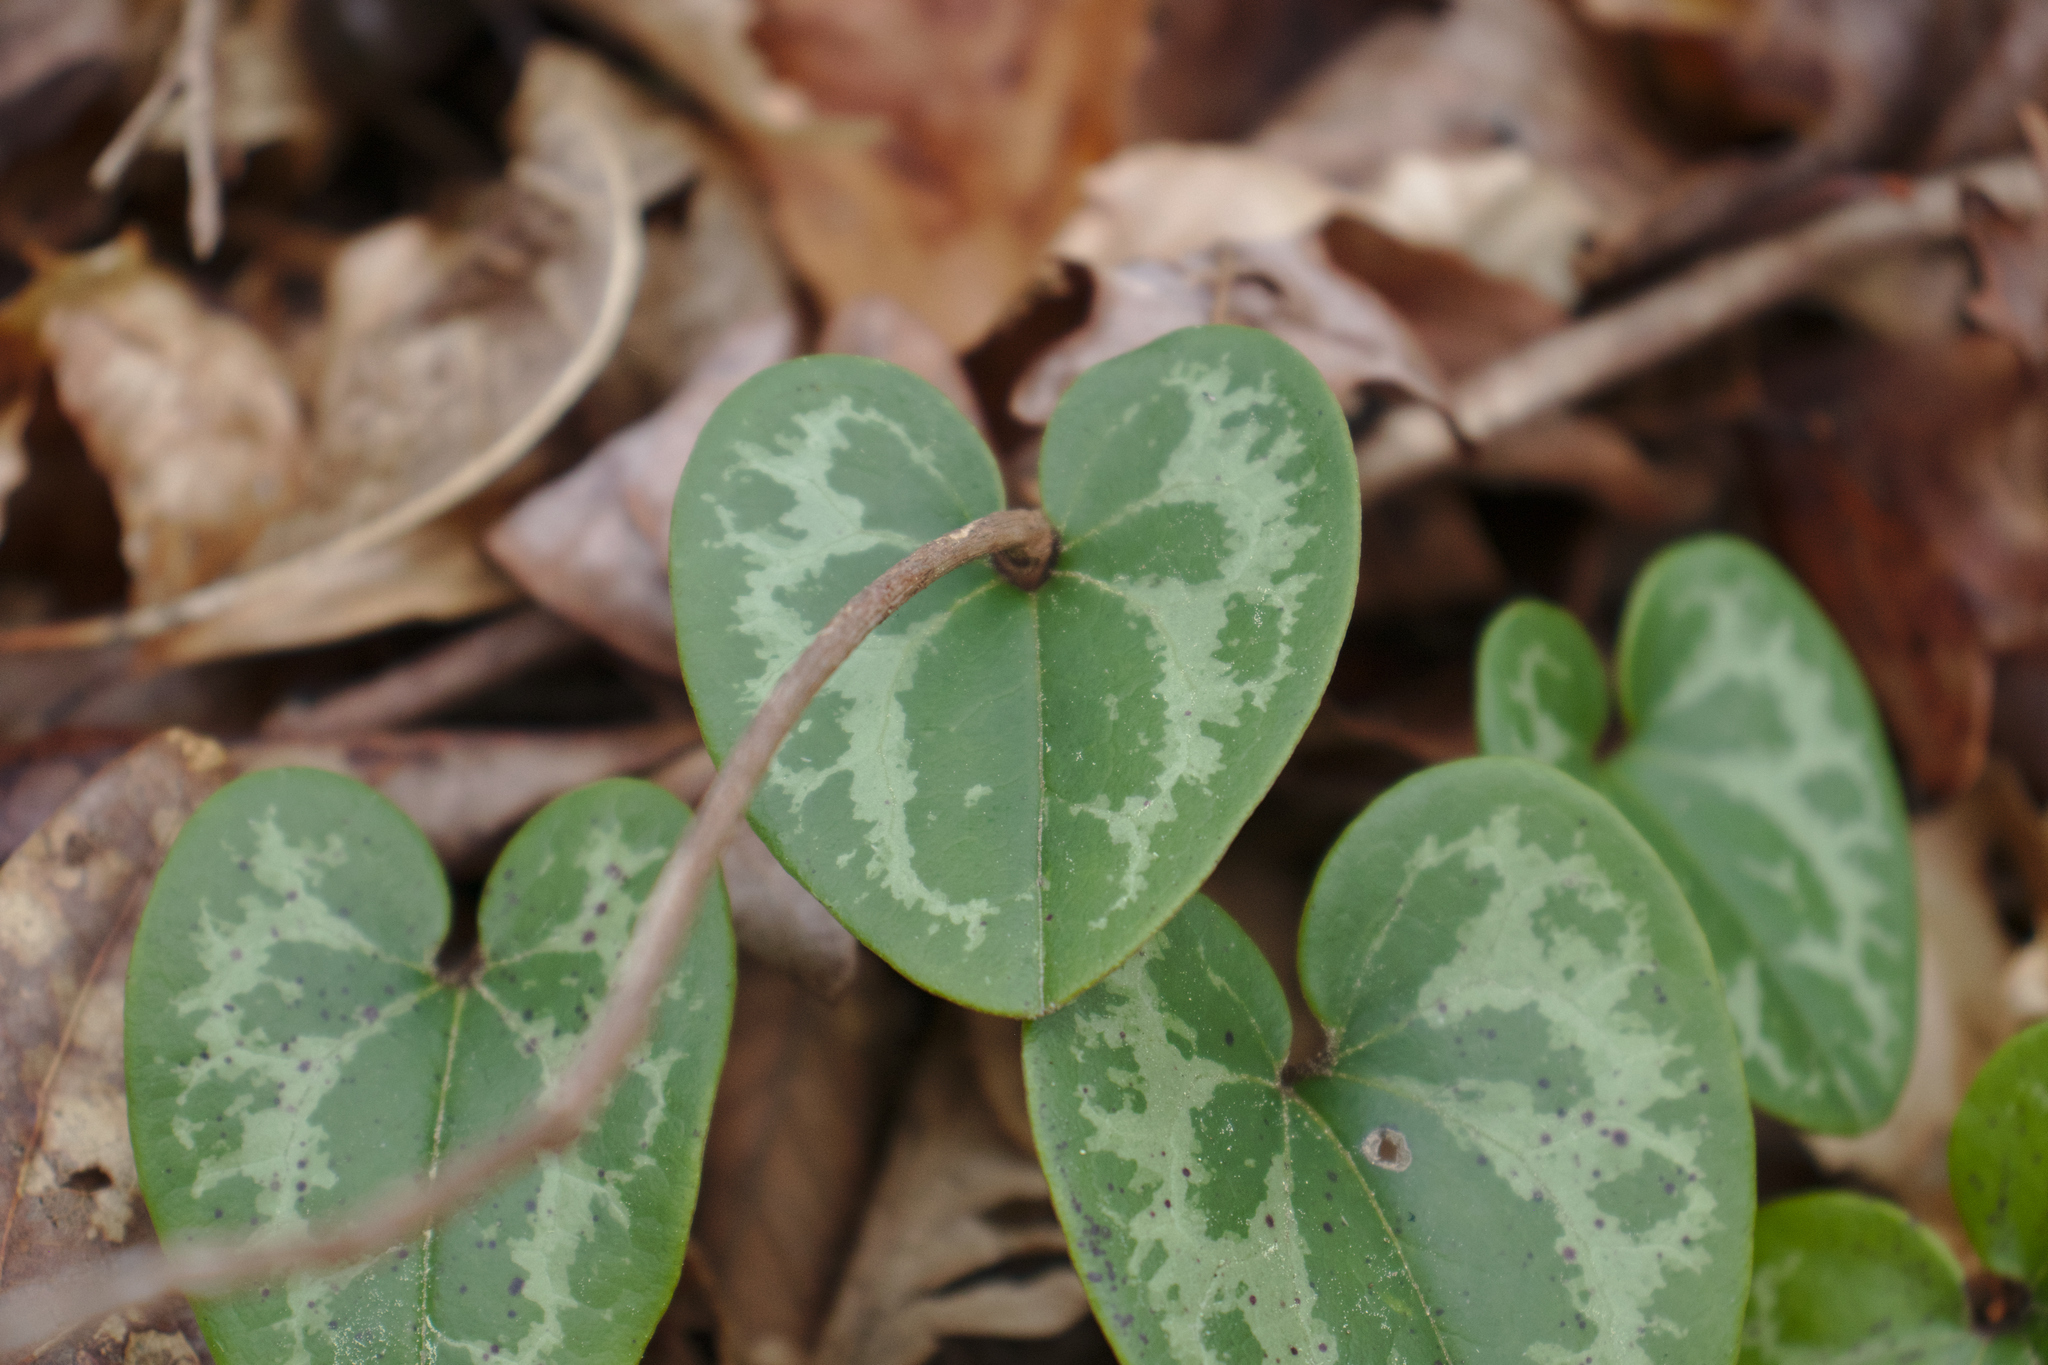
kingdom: Plantae
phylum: Tracheophyta
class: Magnoliopsida
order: Piperales
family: Aristolochiaceae
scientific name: Aristolochiaceae
